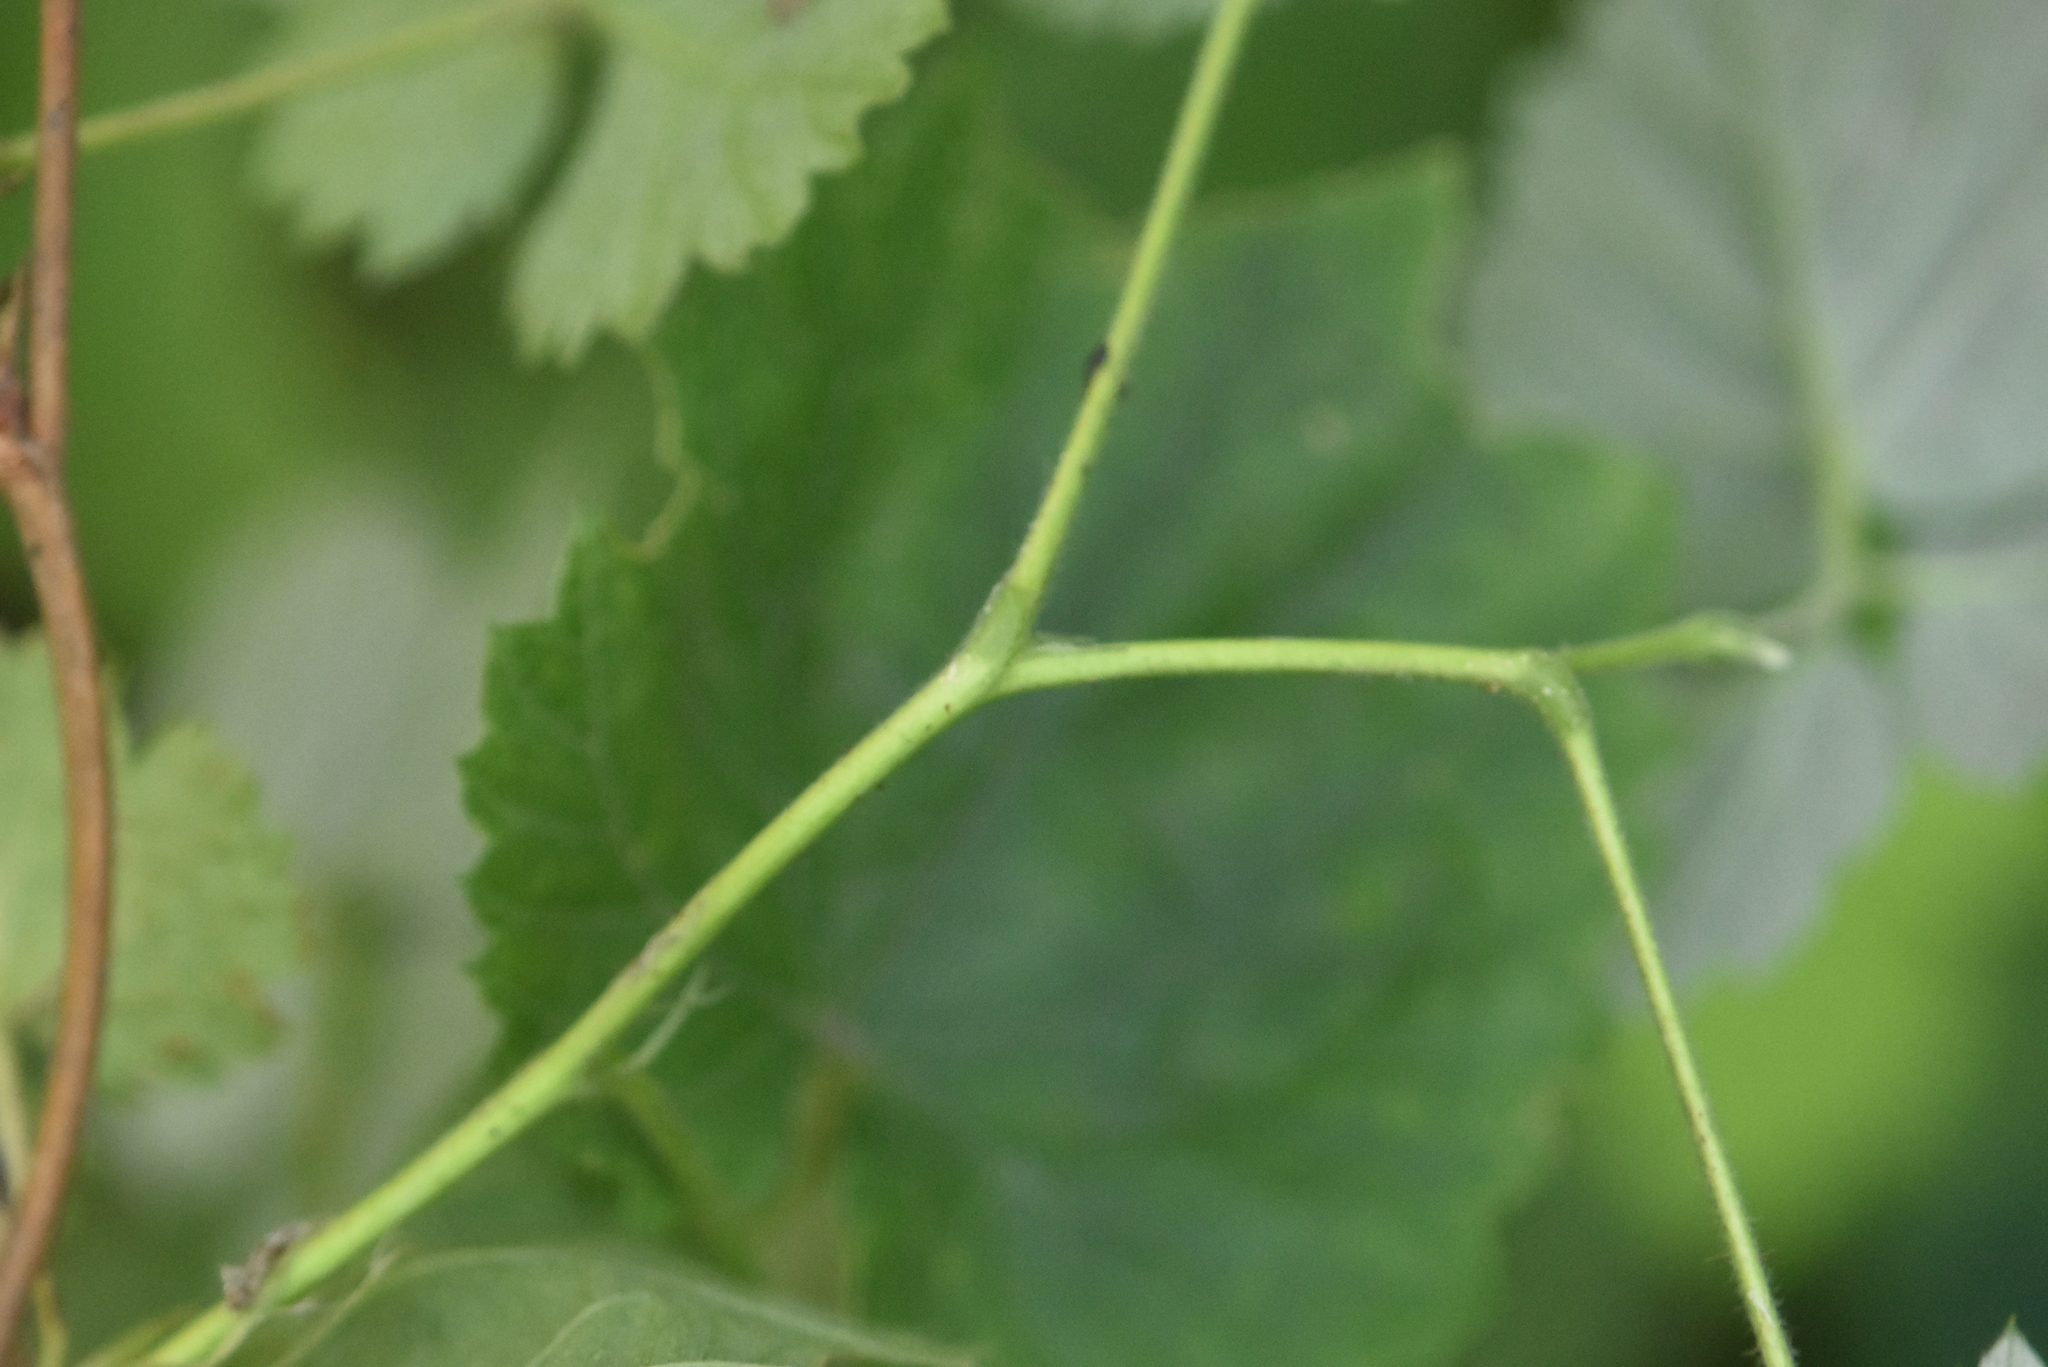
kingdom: Plantae
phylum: Tracheophyta
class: Magnoliopsida
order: Rosales
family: Rosaceae
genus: Rubus
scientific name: Rubus caesius
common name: Dewberry
